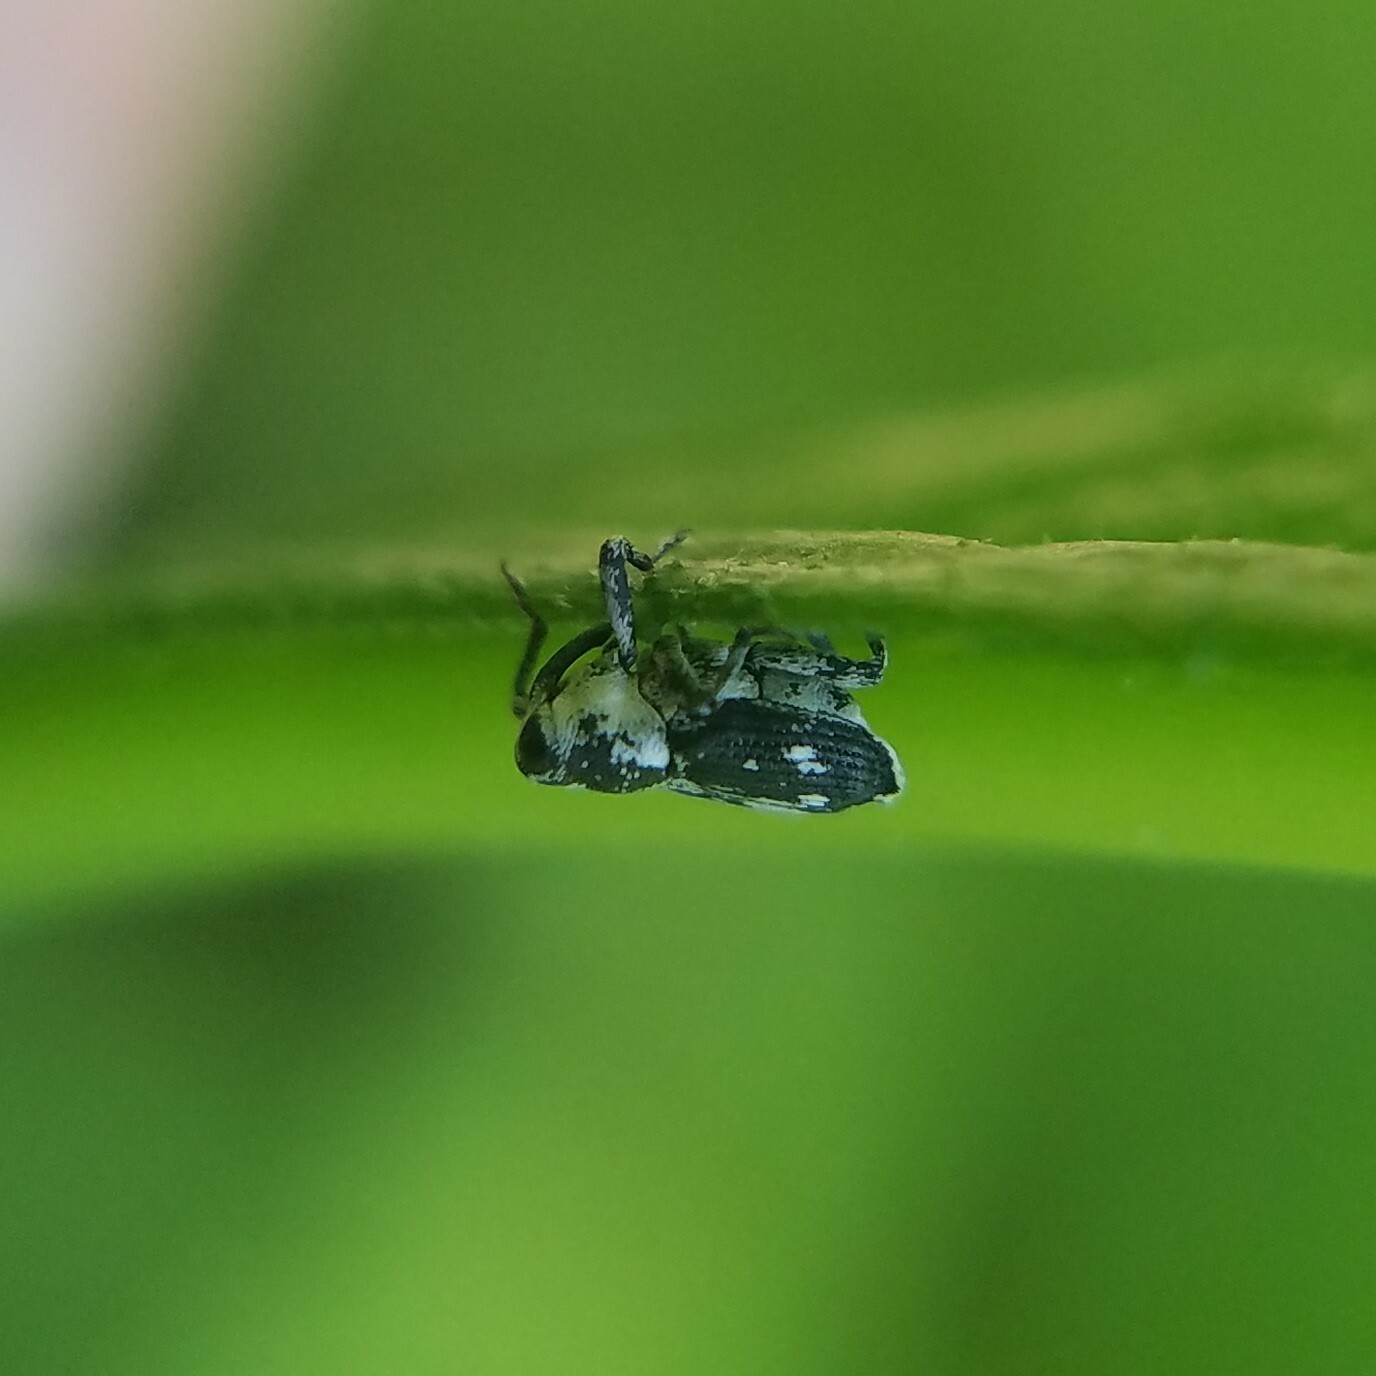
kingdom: Animalia
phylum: Arthropoda
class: Insecta
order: Coleoptera
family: Curculionidae
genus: Cylindrocopturus
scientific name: Cylindrocopturus quercus
